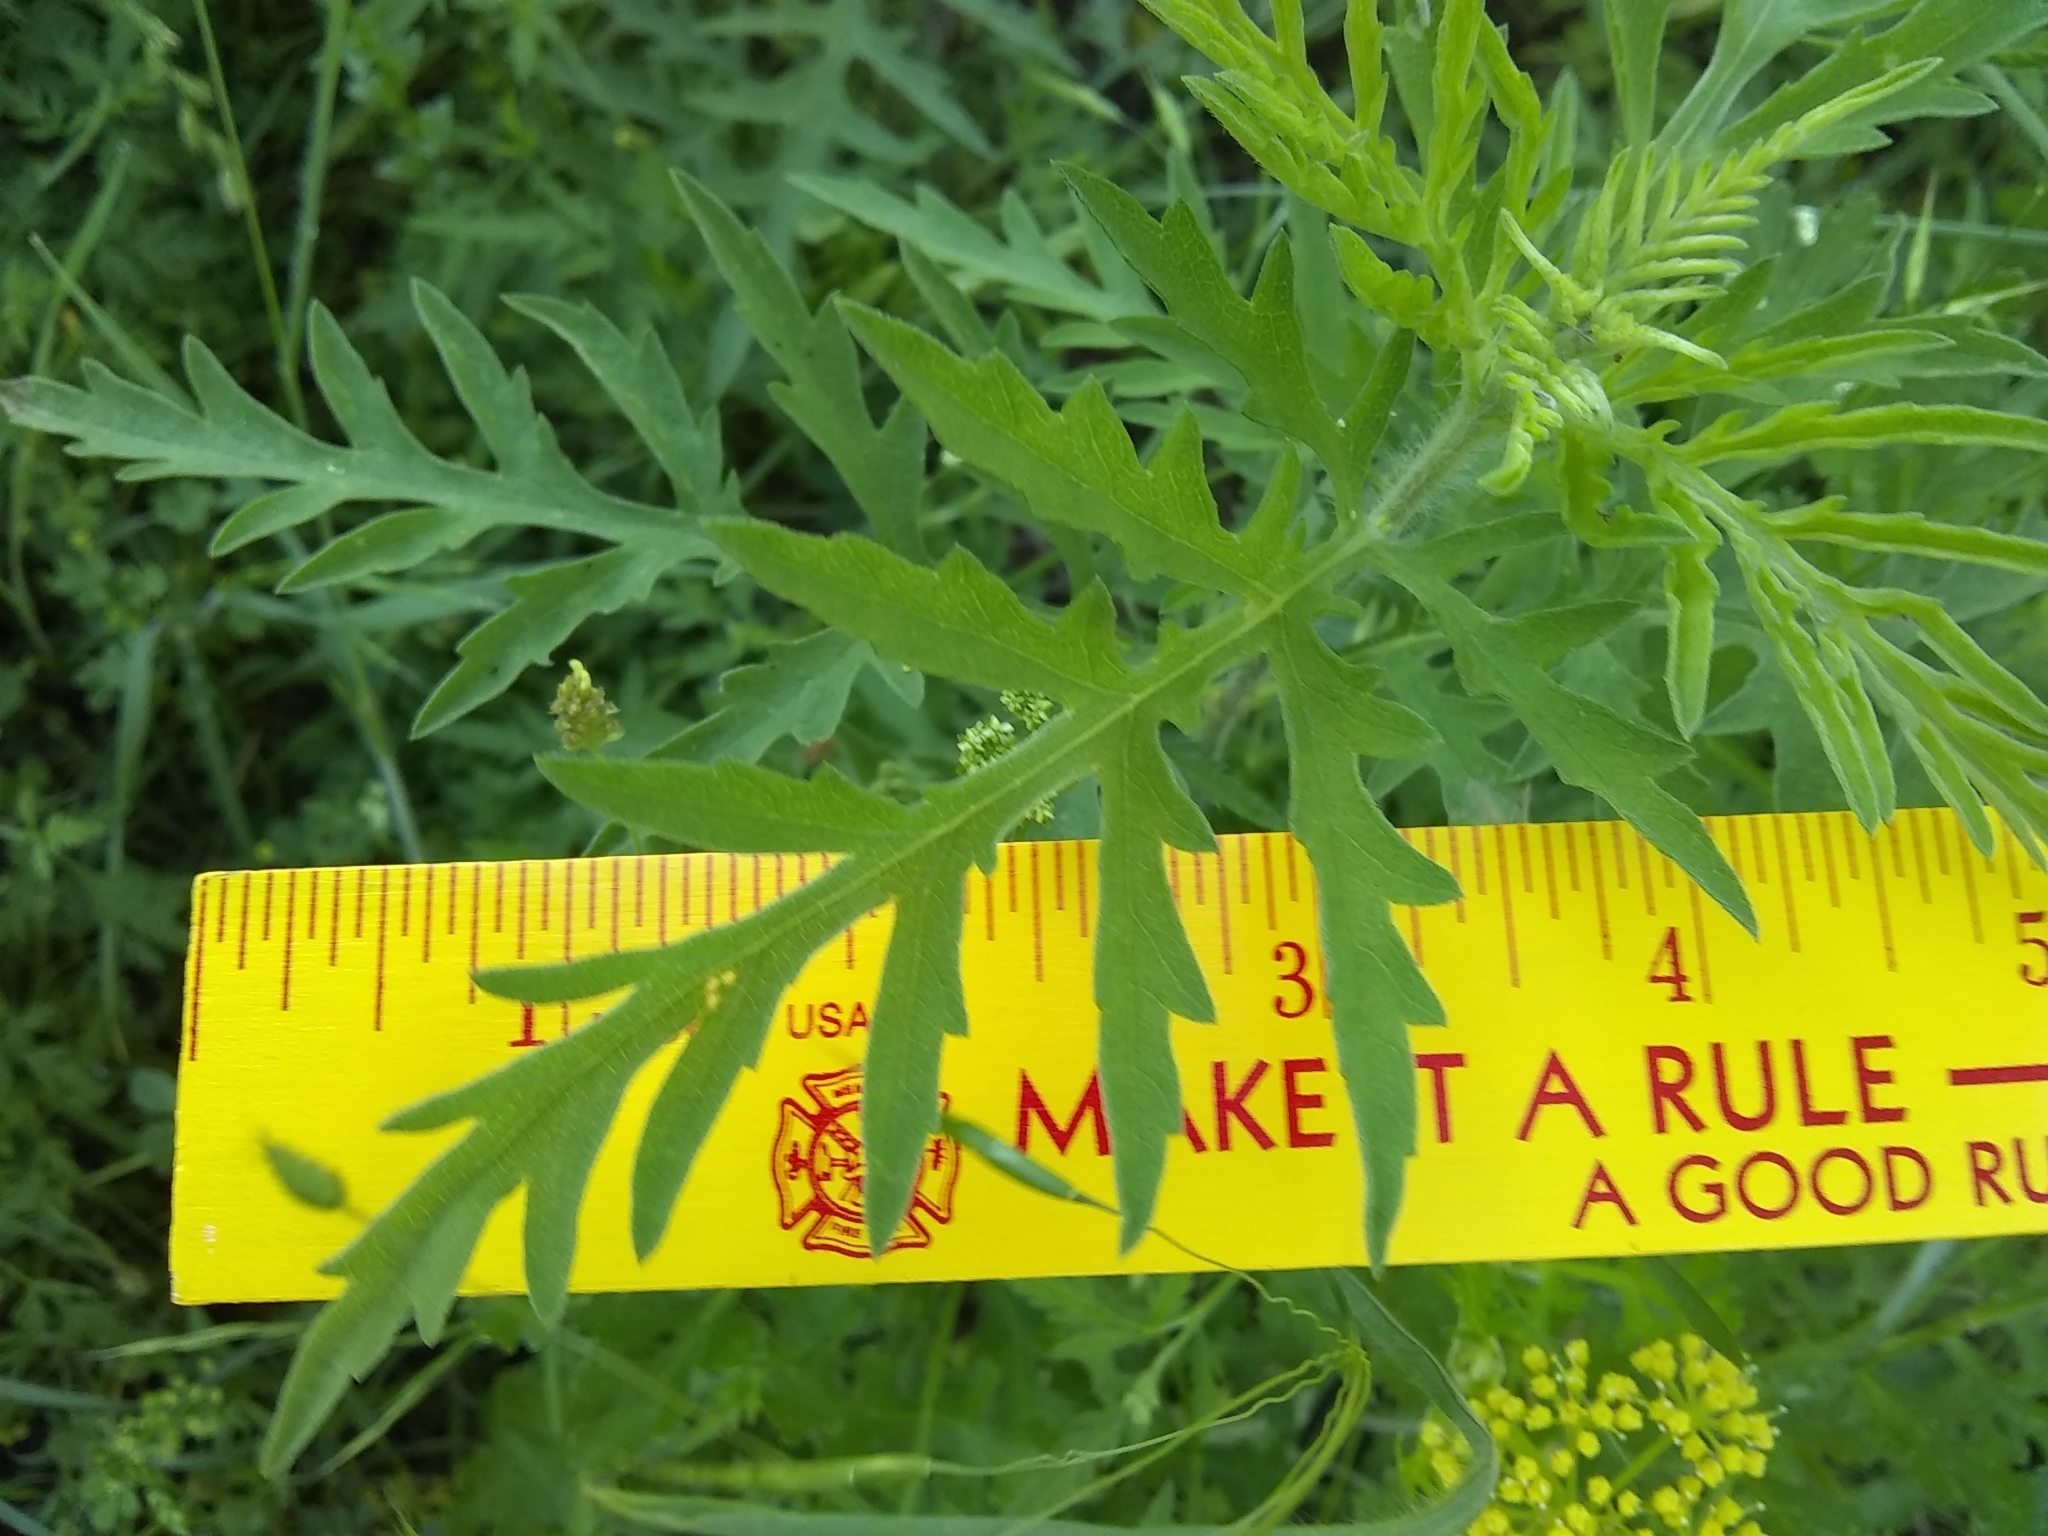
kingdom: Plantae
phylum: Tracheophyta
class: Magnoliopsida
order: Apiales
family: Apiaceae
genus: Polytaenia
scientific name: Polytaenia texana
